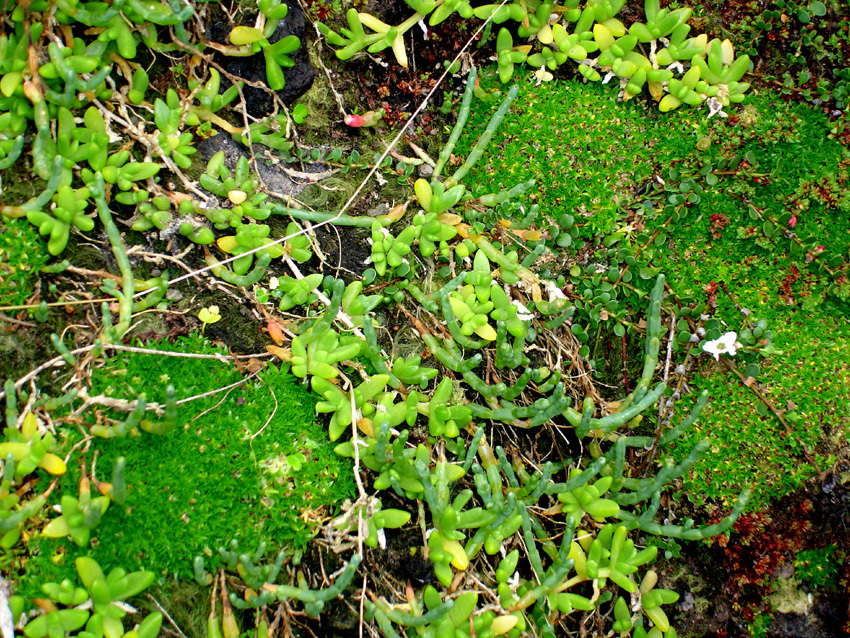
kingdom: Plantae
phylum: Tracheophyta
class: Magnoliopsida
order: Caryophyllales
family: Caryophyllaceae
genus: Colobanthus
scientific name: Colobanthus muscoides
